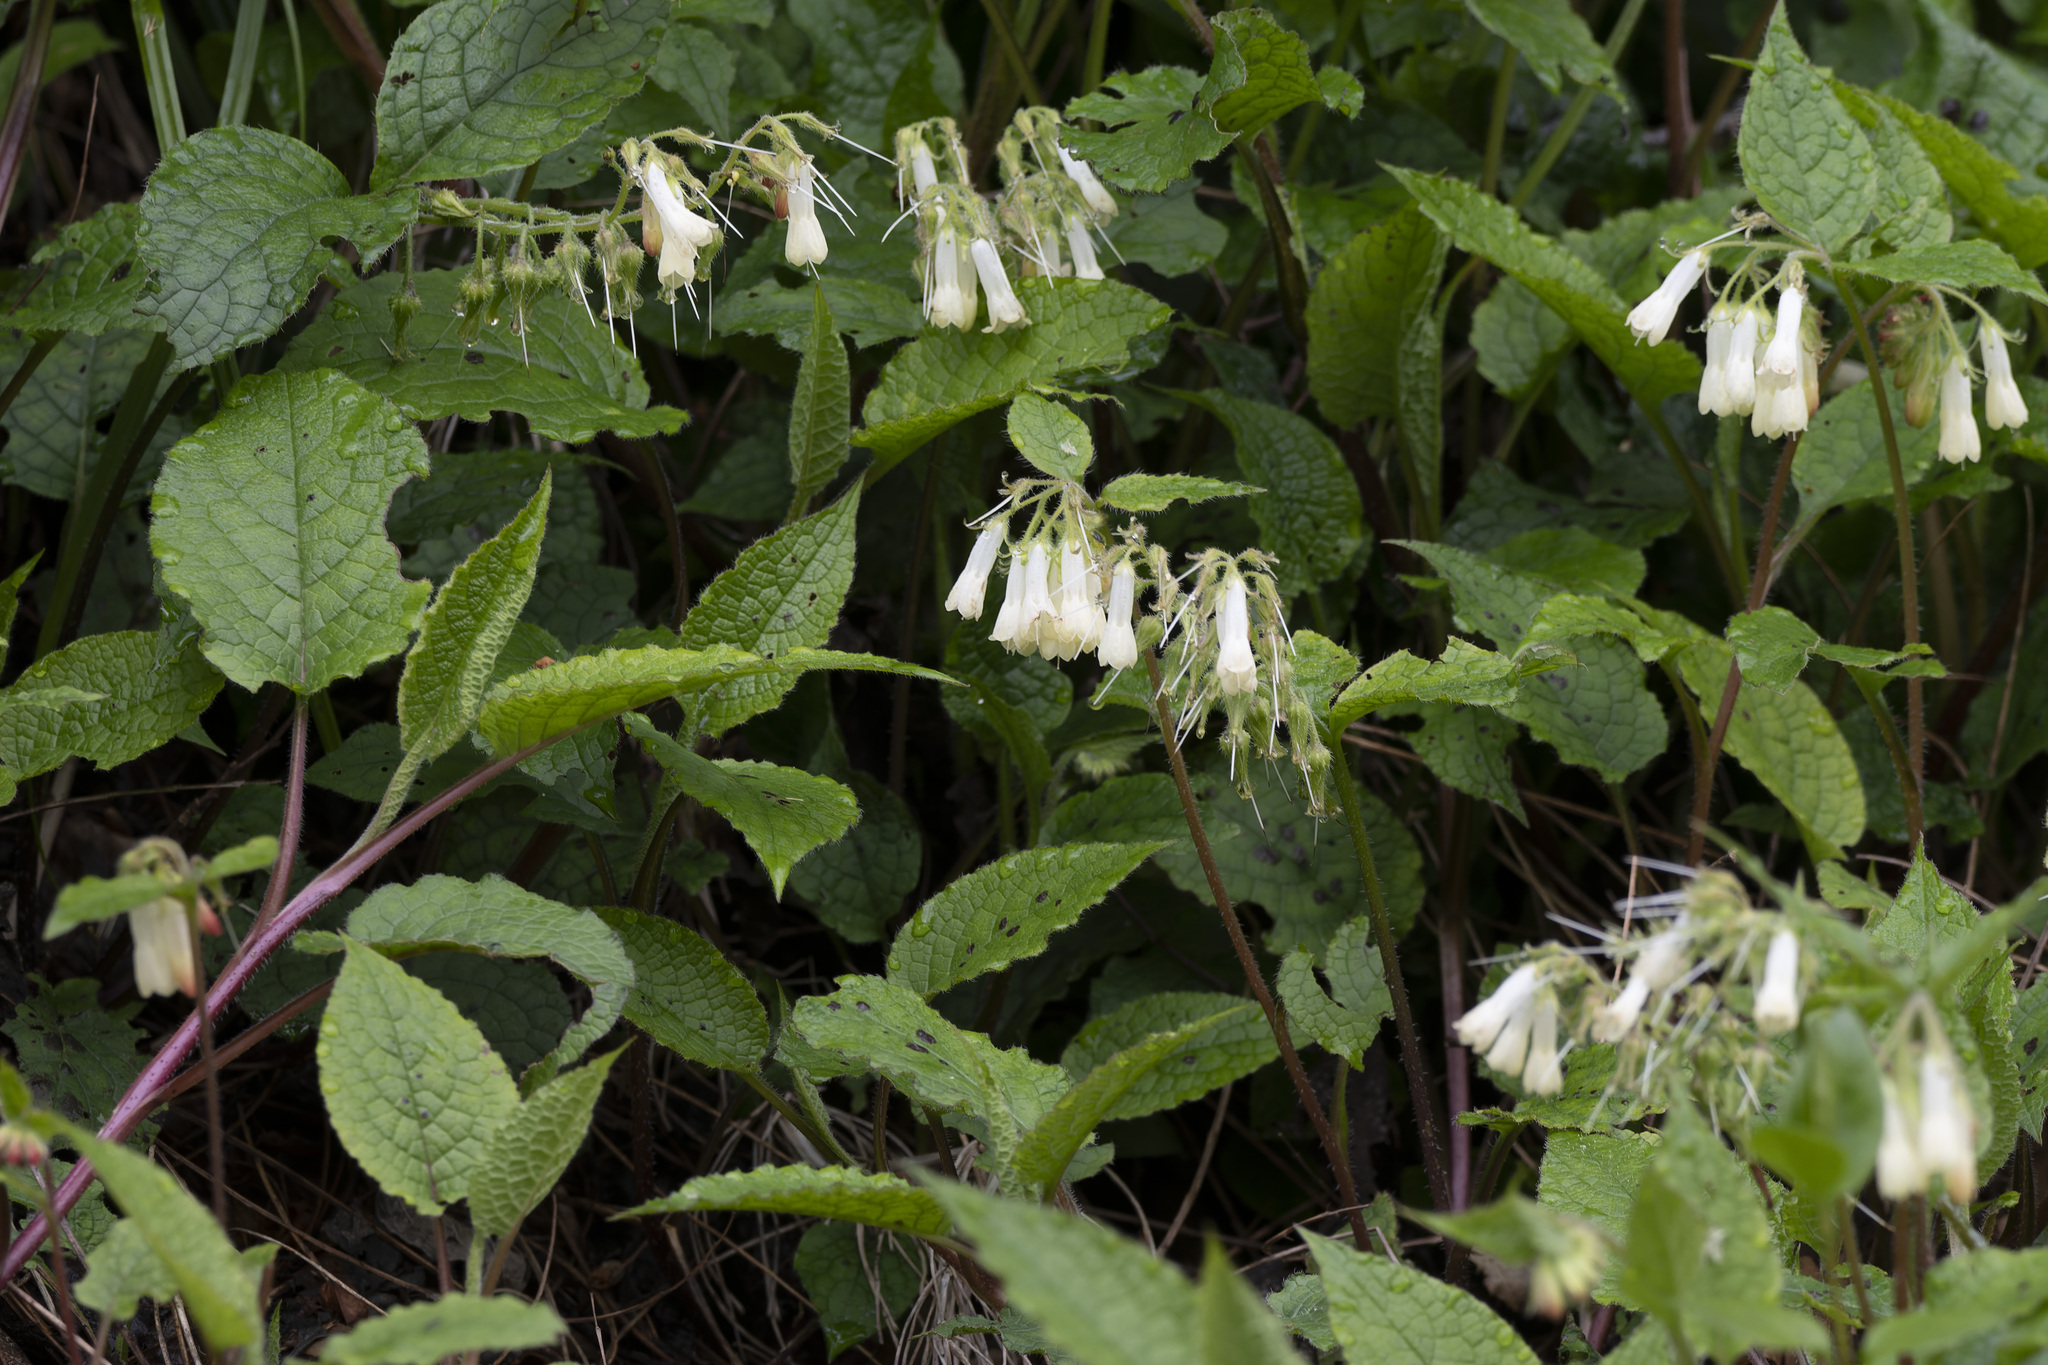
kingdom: Plantae
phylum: Tracheophyta
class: Magnoliopsida
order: Boraginales
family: Boraginaceae
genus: Symphytum
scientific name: Symphytum grandiflorum
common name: Creeping comfrey
